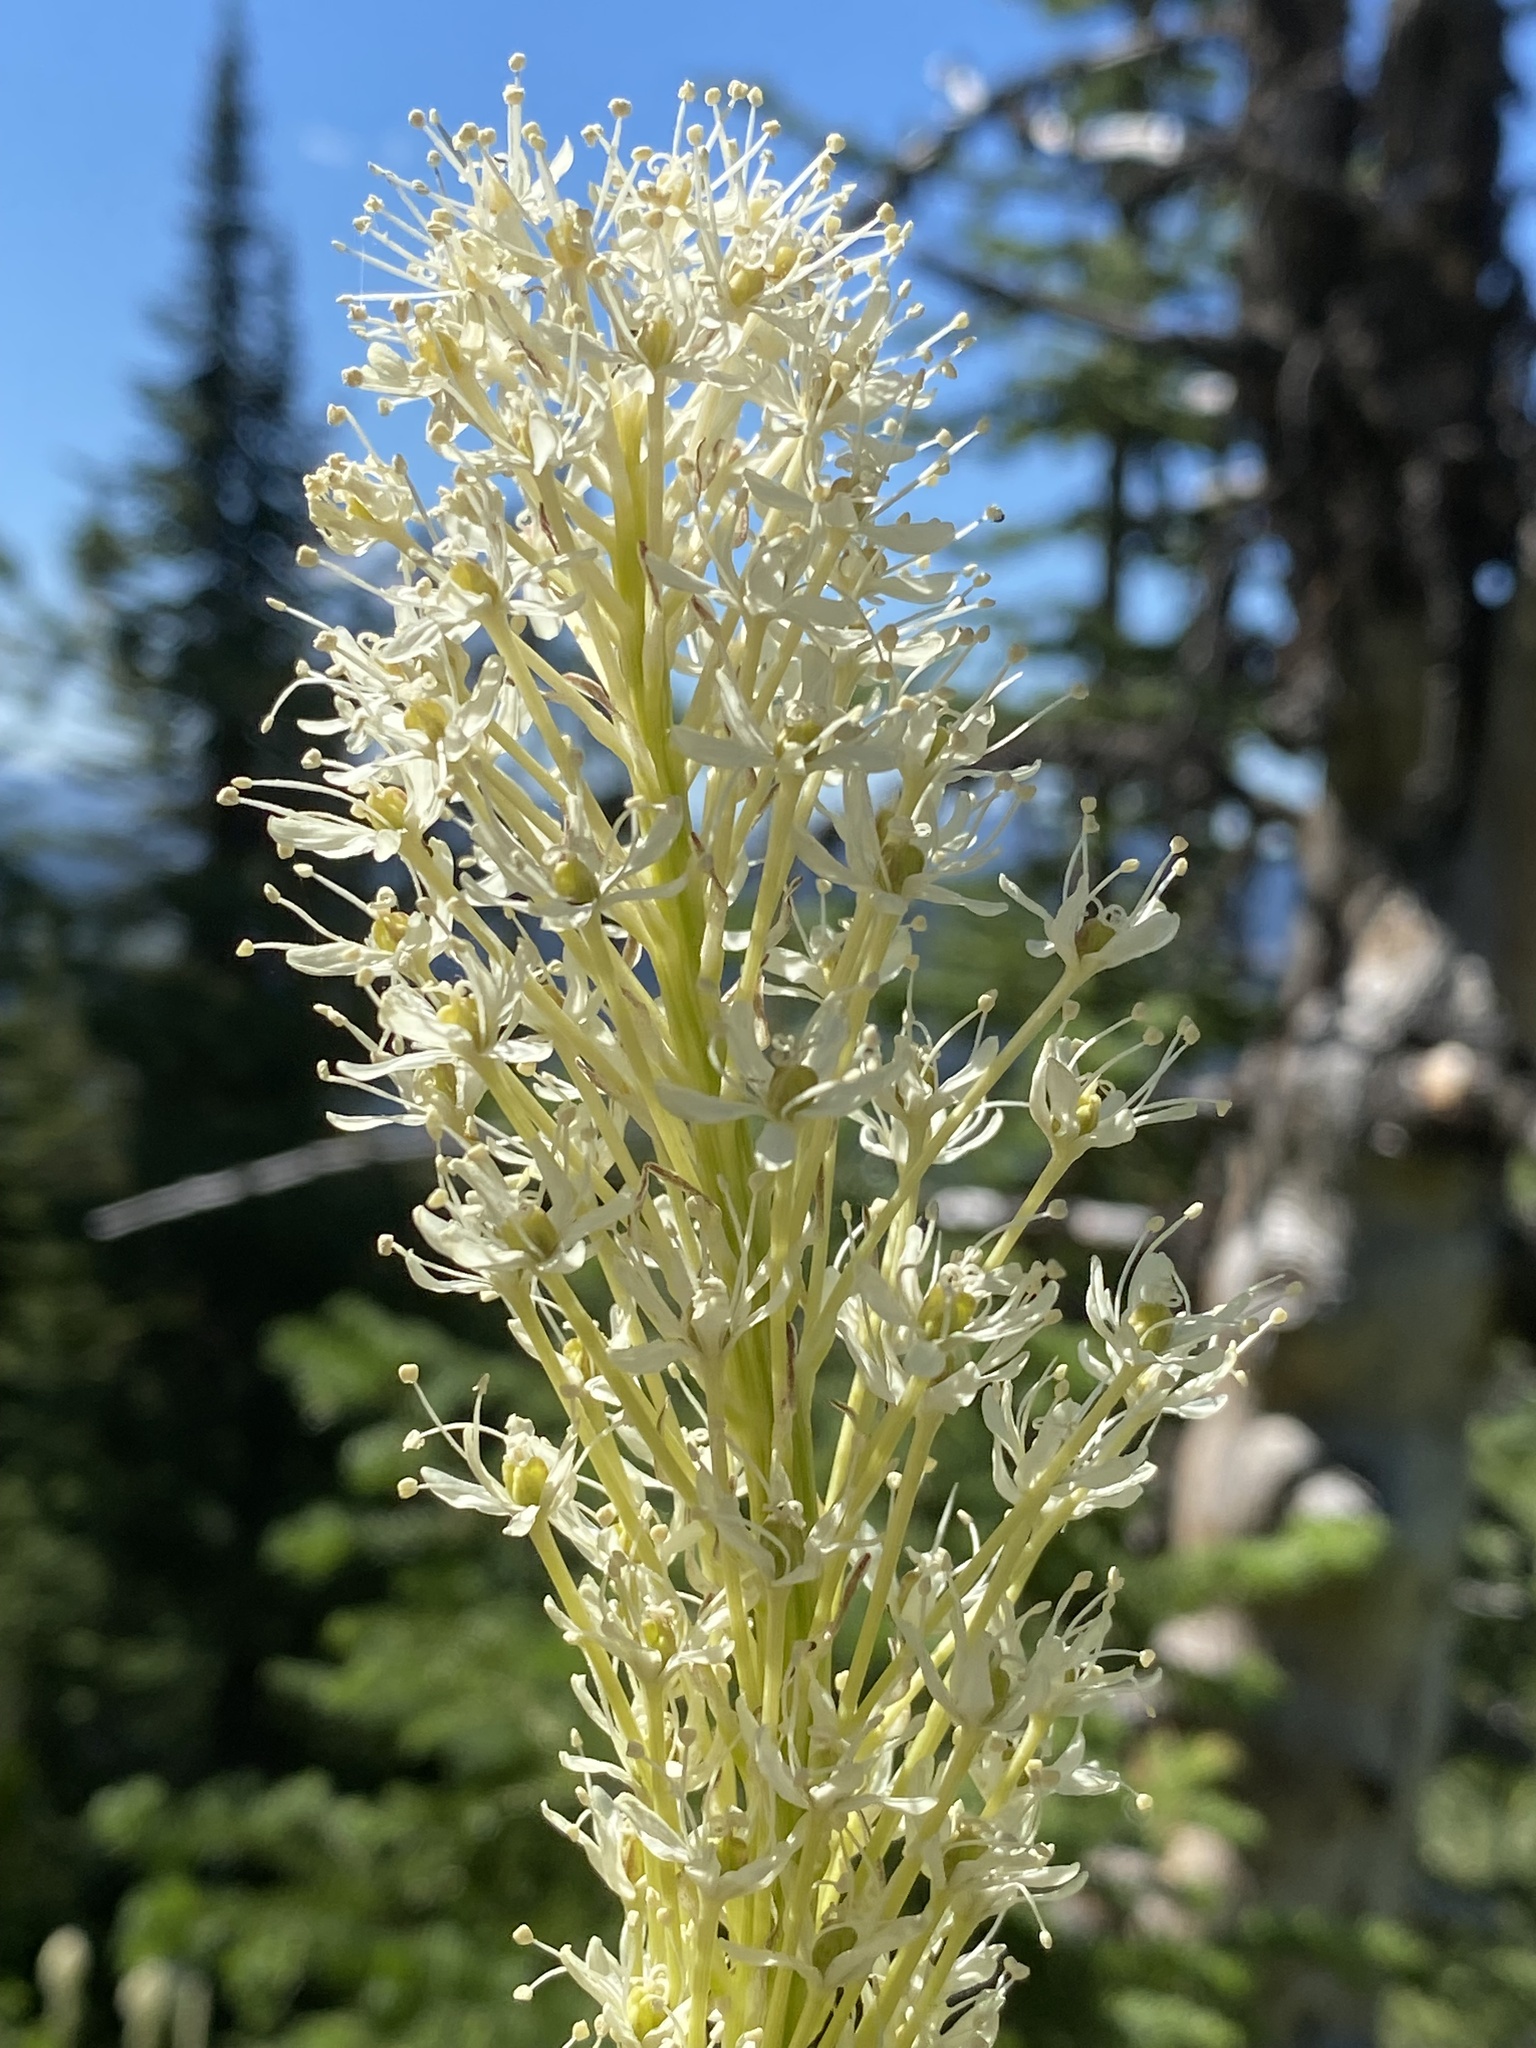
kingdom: Plantae
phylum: Tracheophyta
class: Liliopsida
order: Liliales
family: Melanthiaceae
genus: Xerophyllum
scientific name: Xerophyllum tenax
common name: Bear-grass
